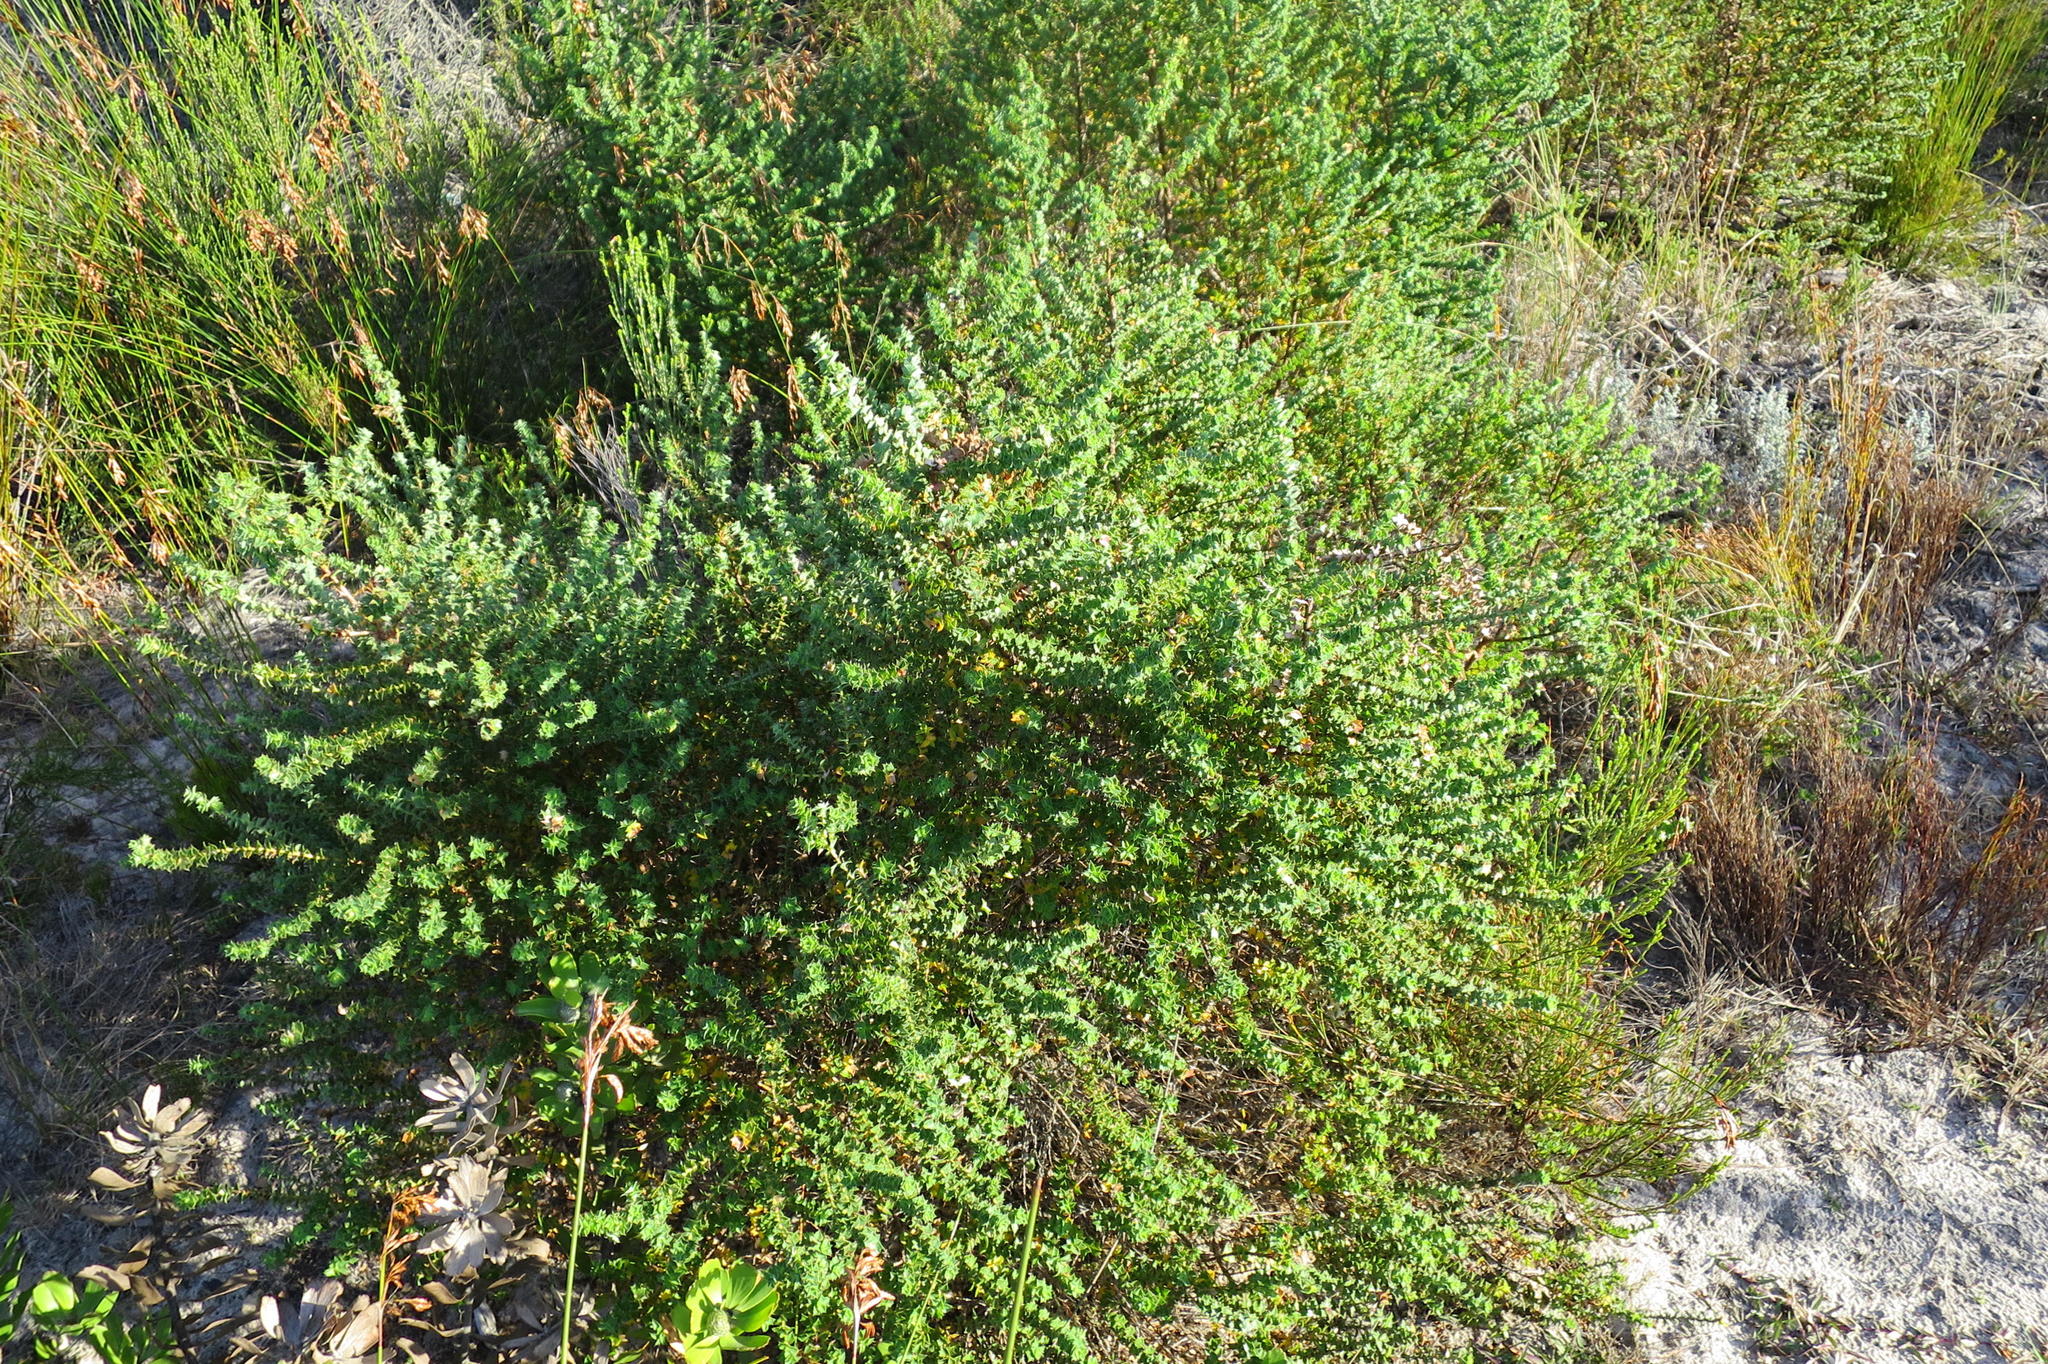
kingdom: Plantae
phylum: Tracheophyta
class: Magnoliopsida
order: Rosales
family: Rosaceae
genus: Cliffortia
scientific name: Cliffortia schlechteri
